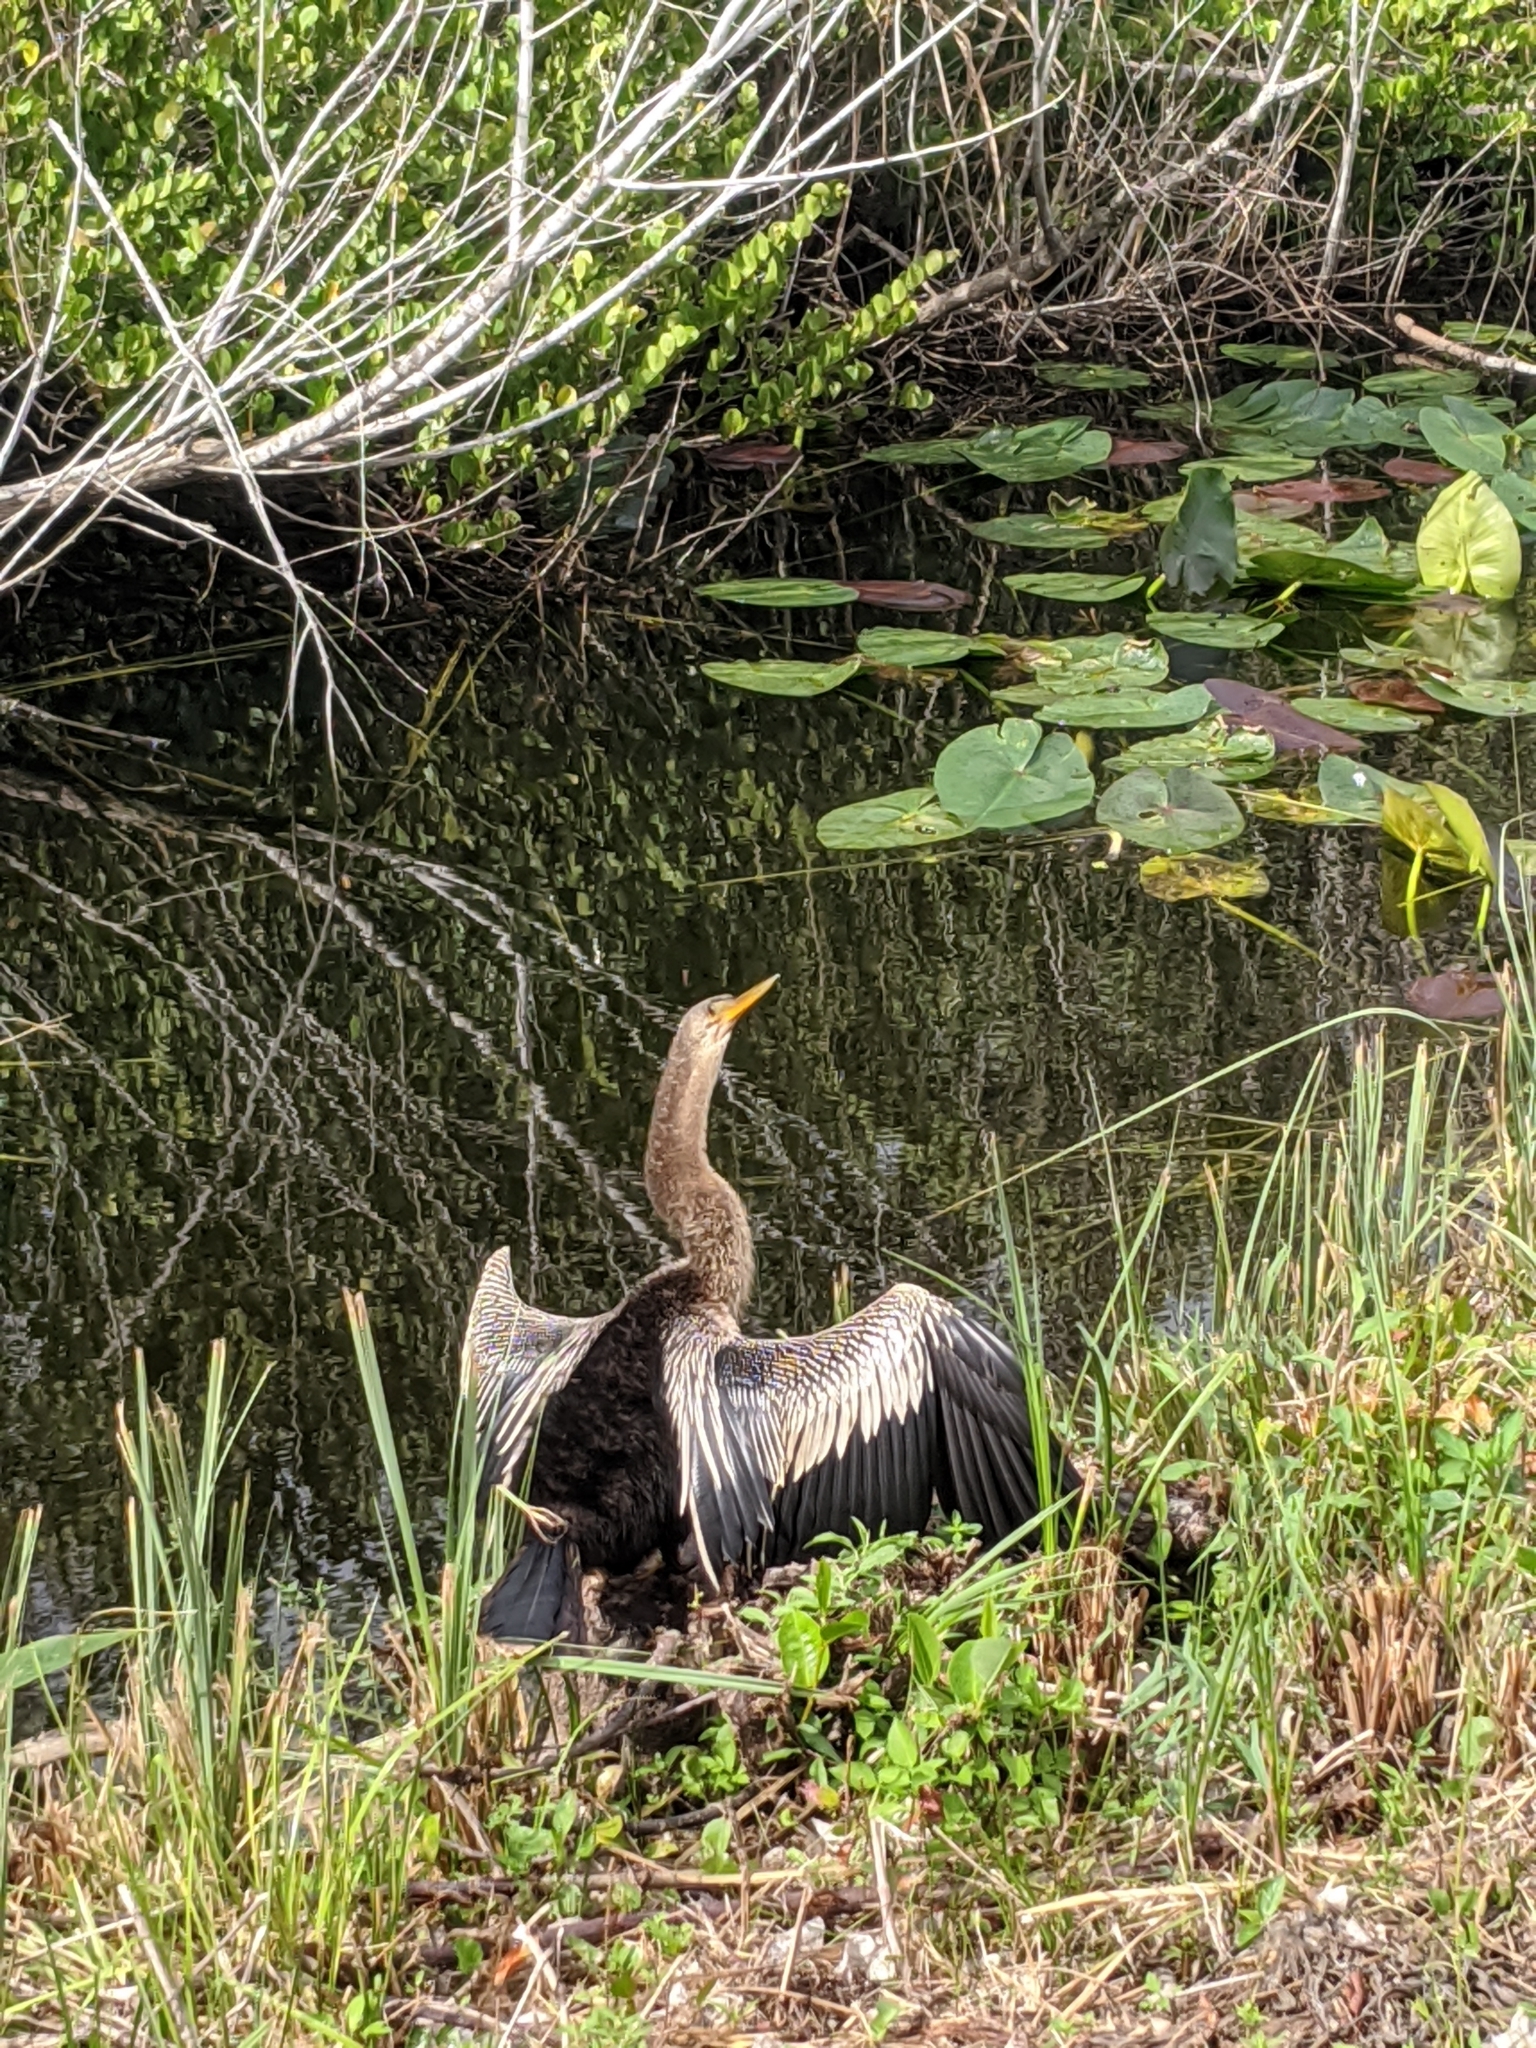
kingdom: Animalia
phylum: Chordata
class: Aves
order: Suliformes
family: Anhingidae
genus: Anhinga
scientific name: Anhinga anhinga
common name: Anhinga
